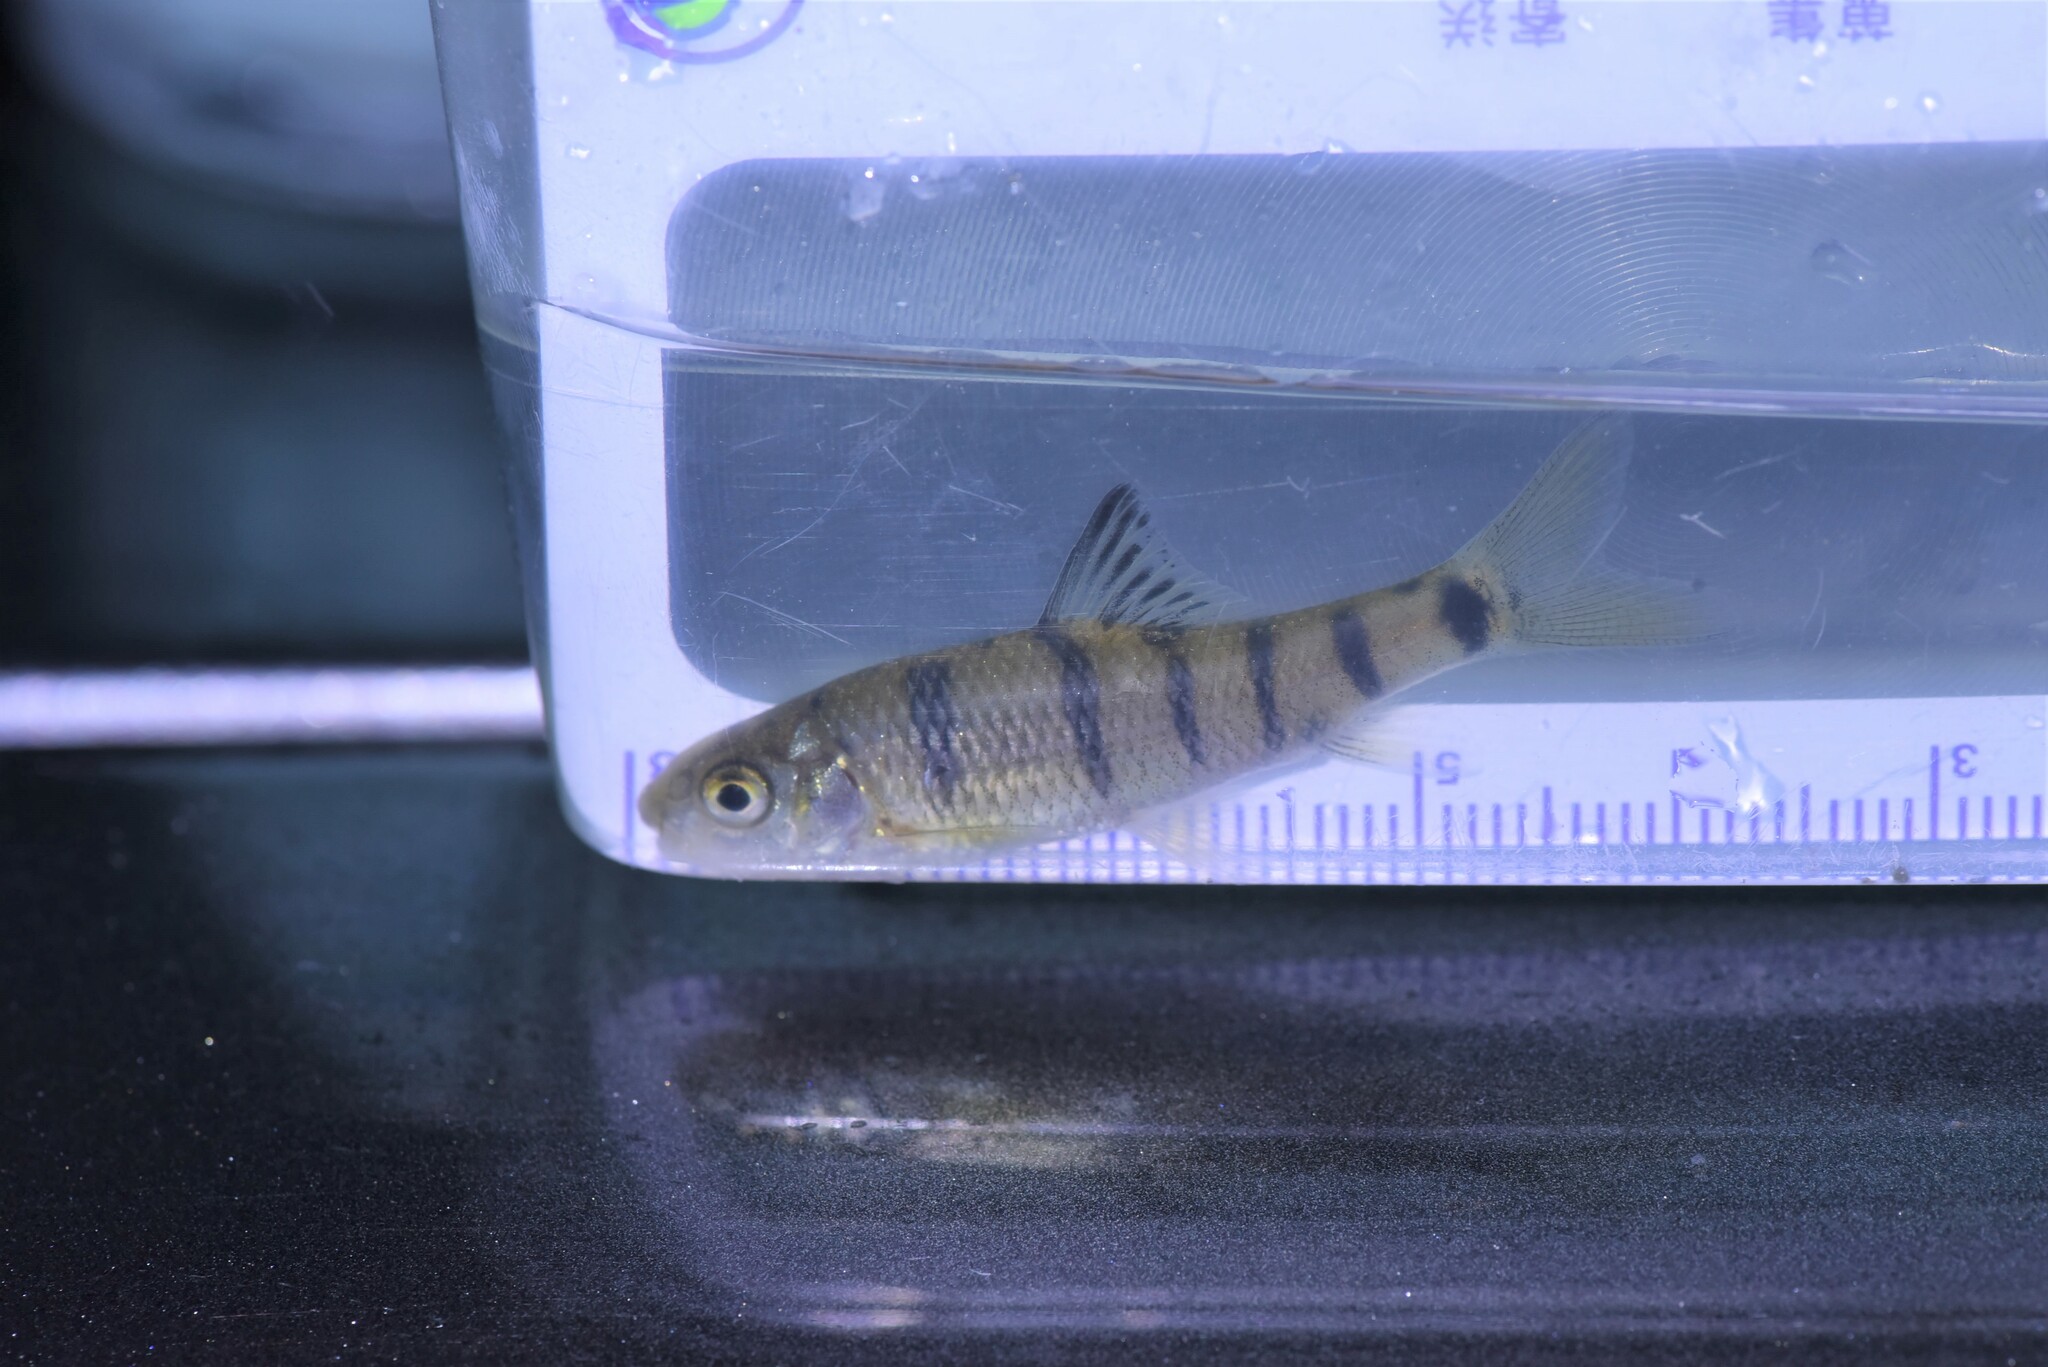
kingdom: Animalia
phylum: Chordata
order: Cypriniformes
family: Cyprinidae
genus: Acrossocheilus
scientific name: Acrossocheilus paradoxus
